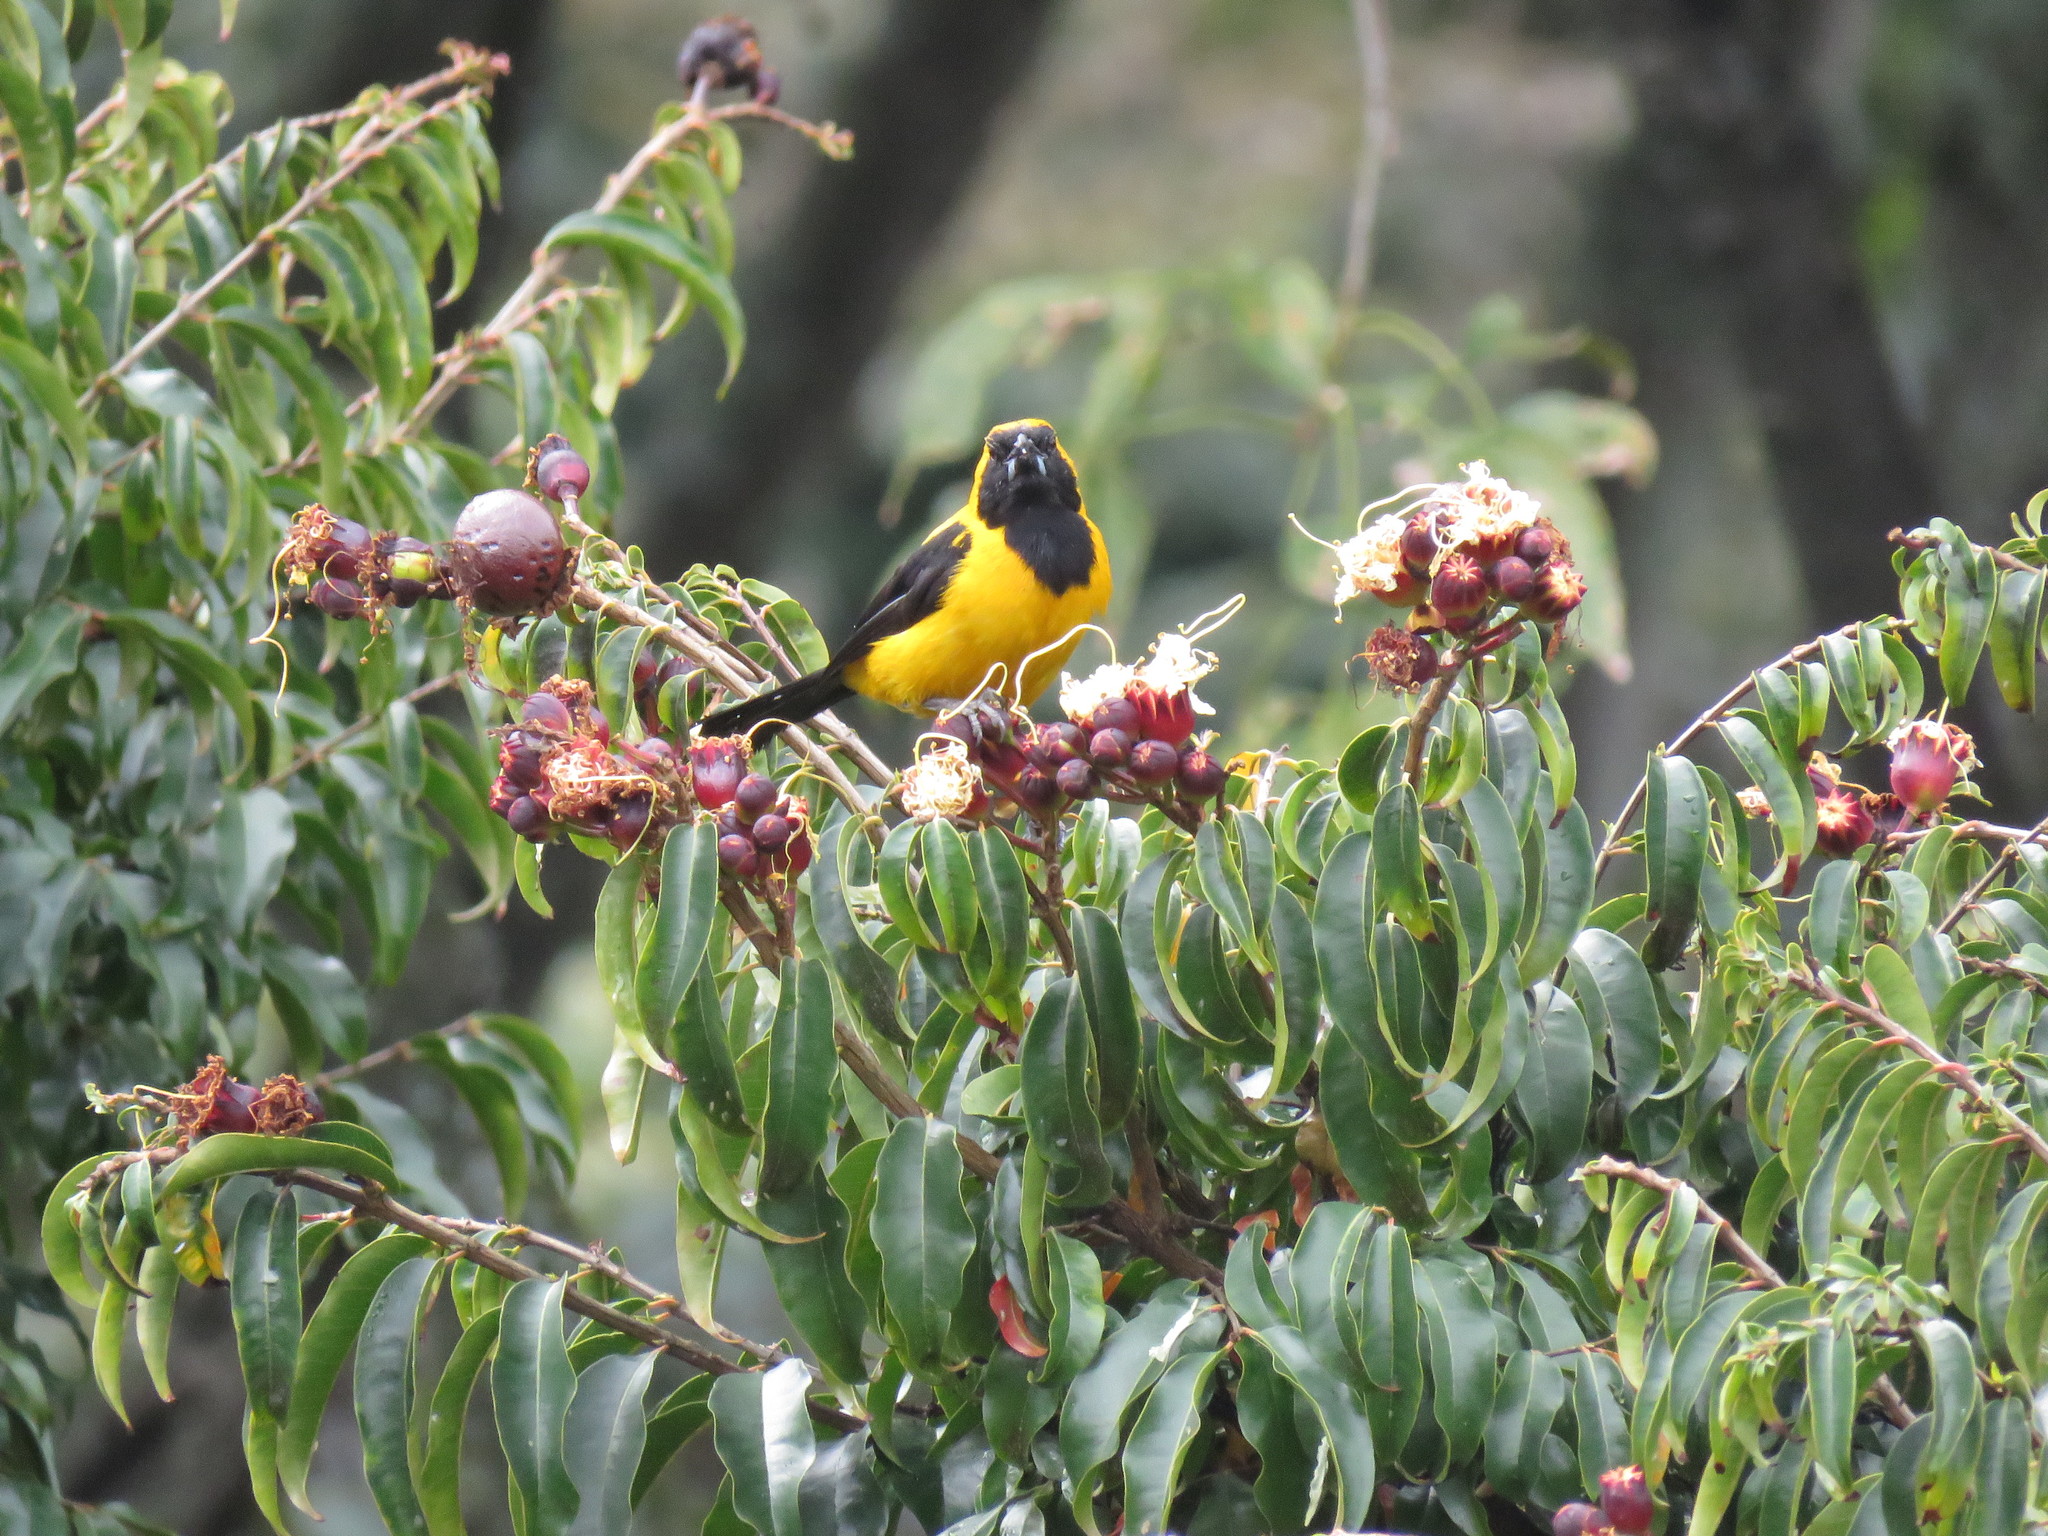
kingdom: Animalia
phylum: Chordata
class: Aves
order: Passeriformes
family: Icteridae
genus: Icterus
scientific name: Icterus chrysater
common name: Yellow-backed oriole
